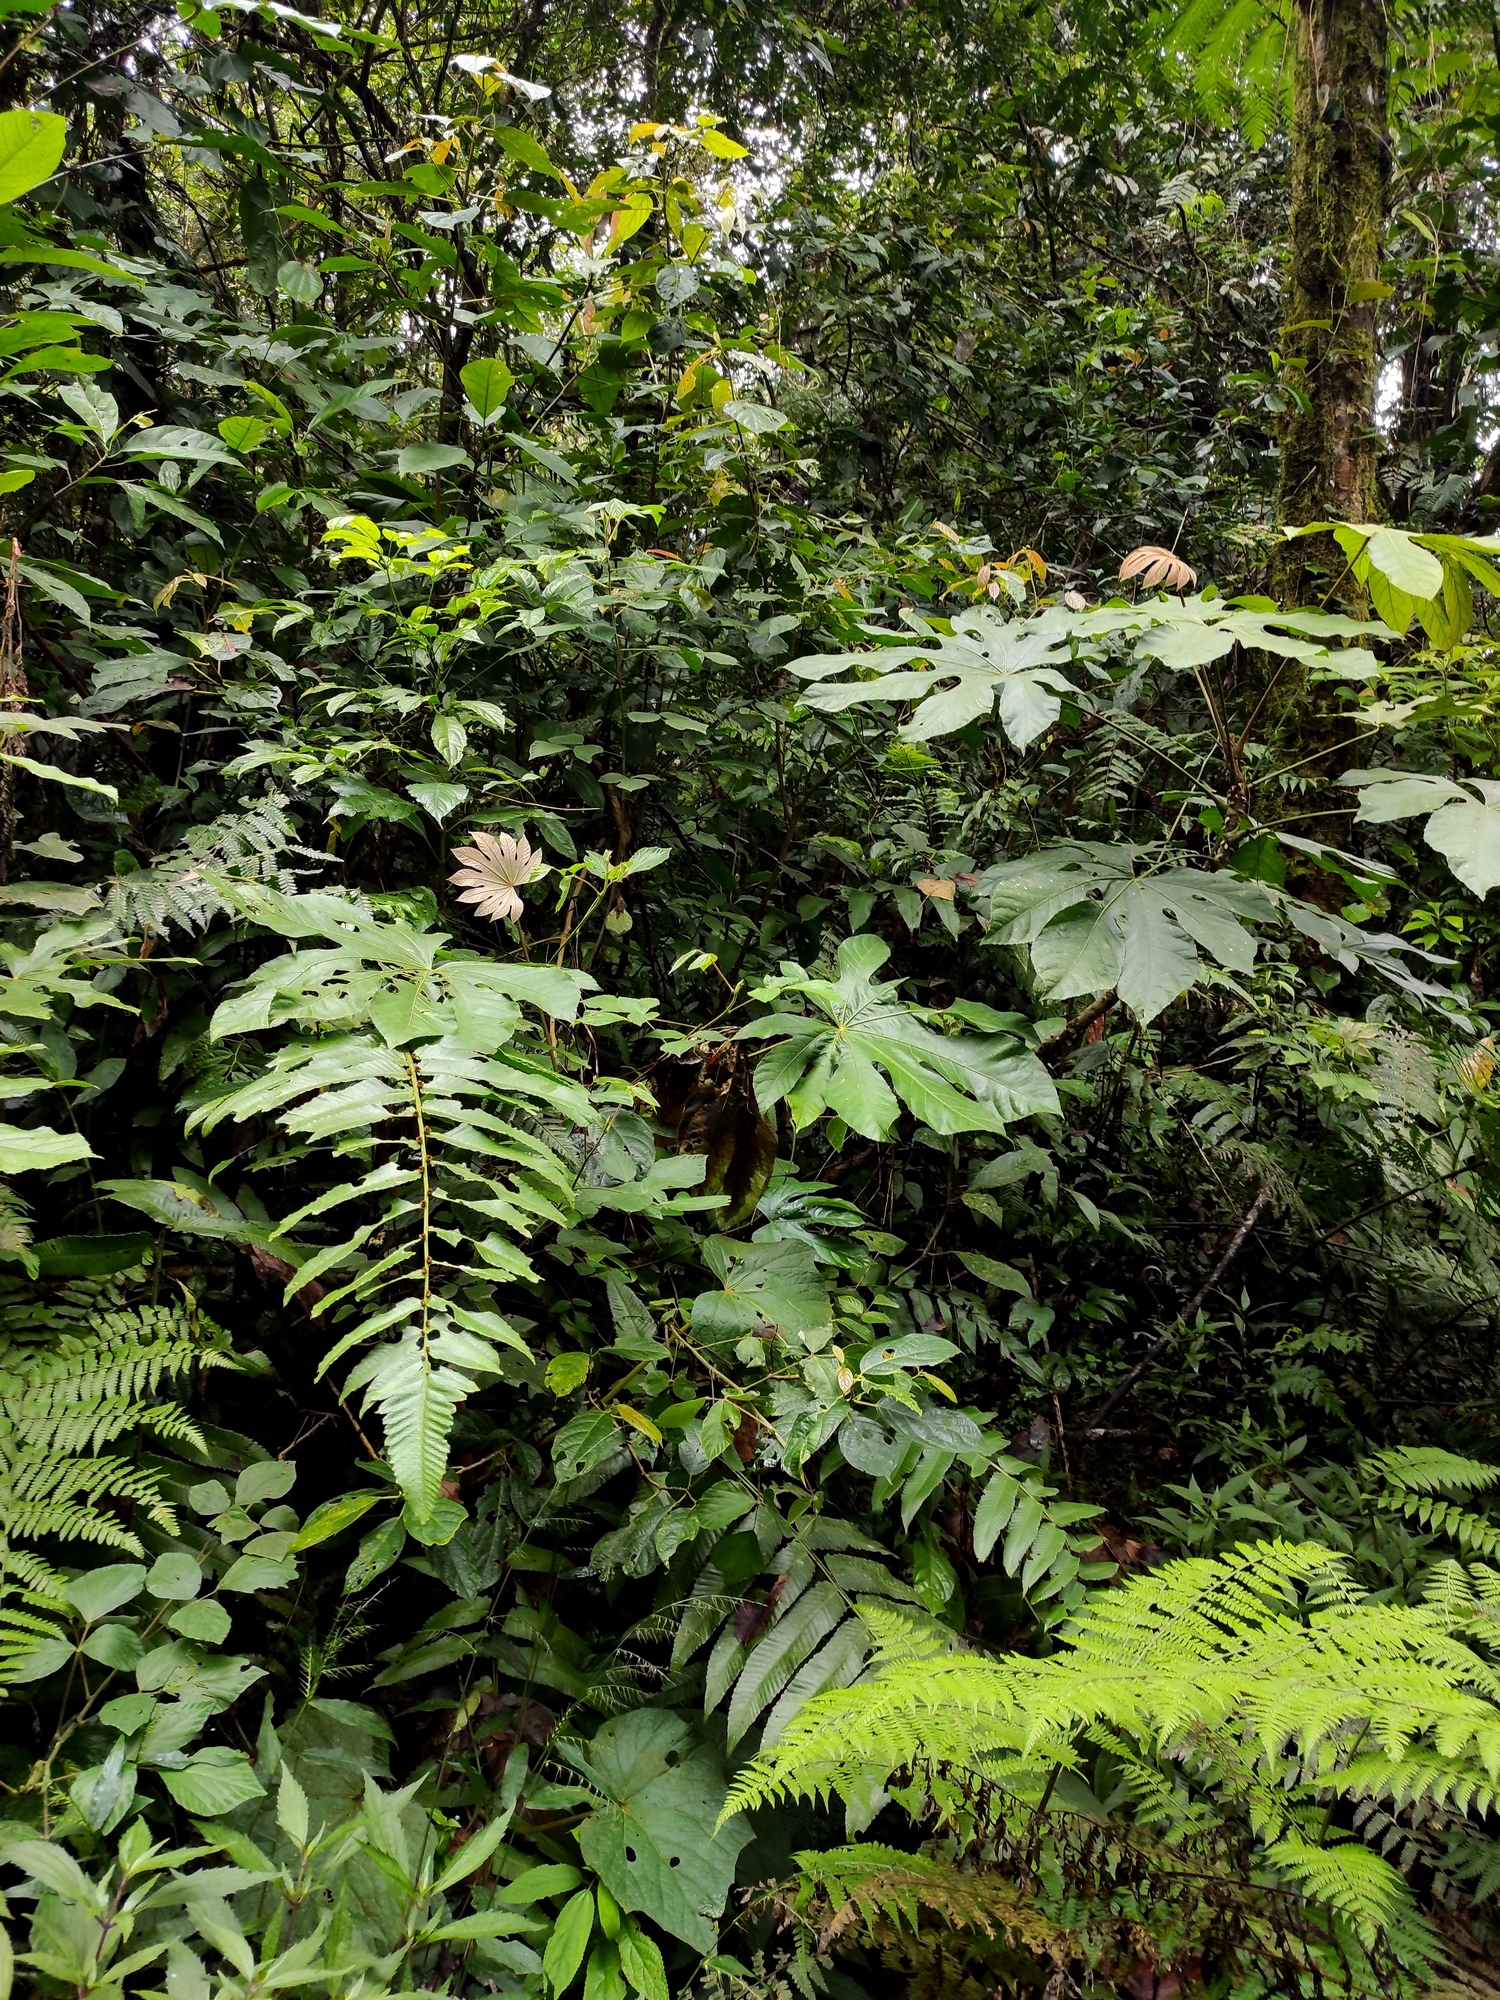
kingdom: Plantae
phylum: Tracheophyta
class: Magnoliopsida
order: Apiales
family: Araliaceae
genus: Trevesia
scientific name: Trevesia sundaica
